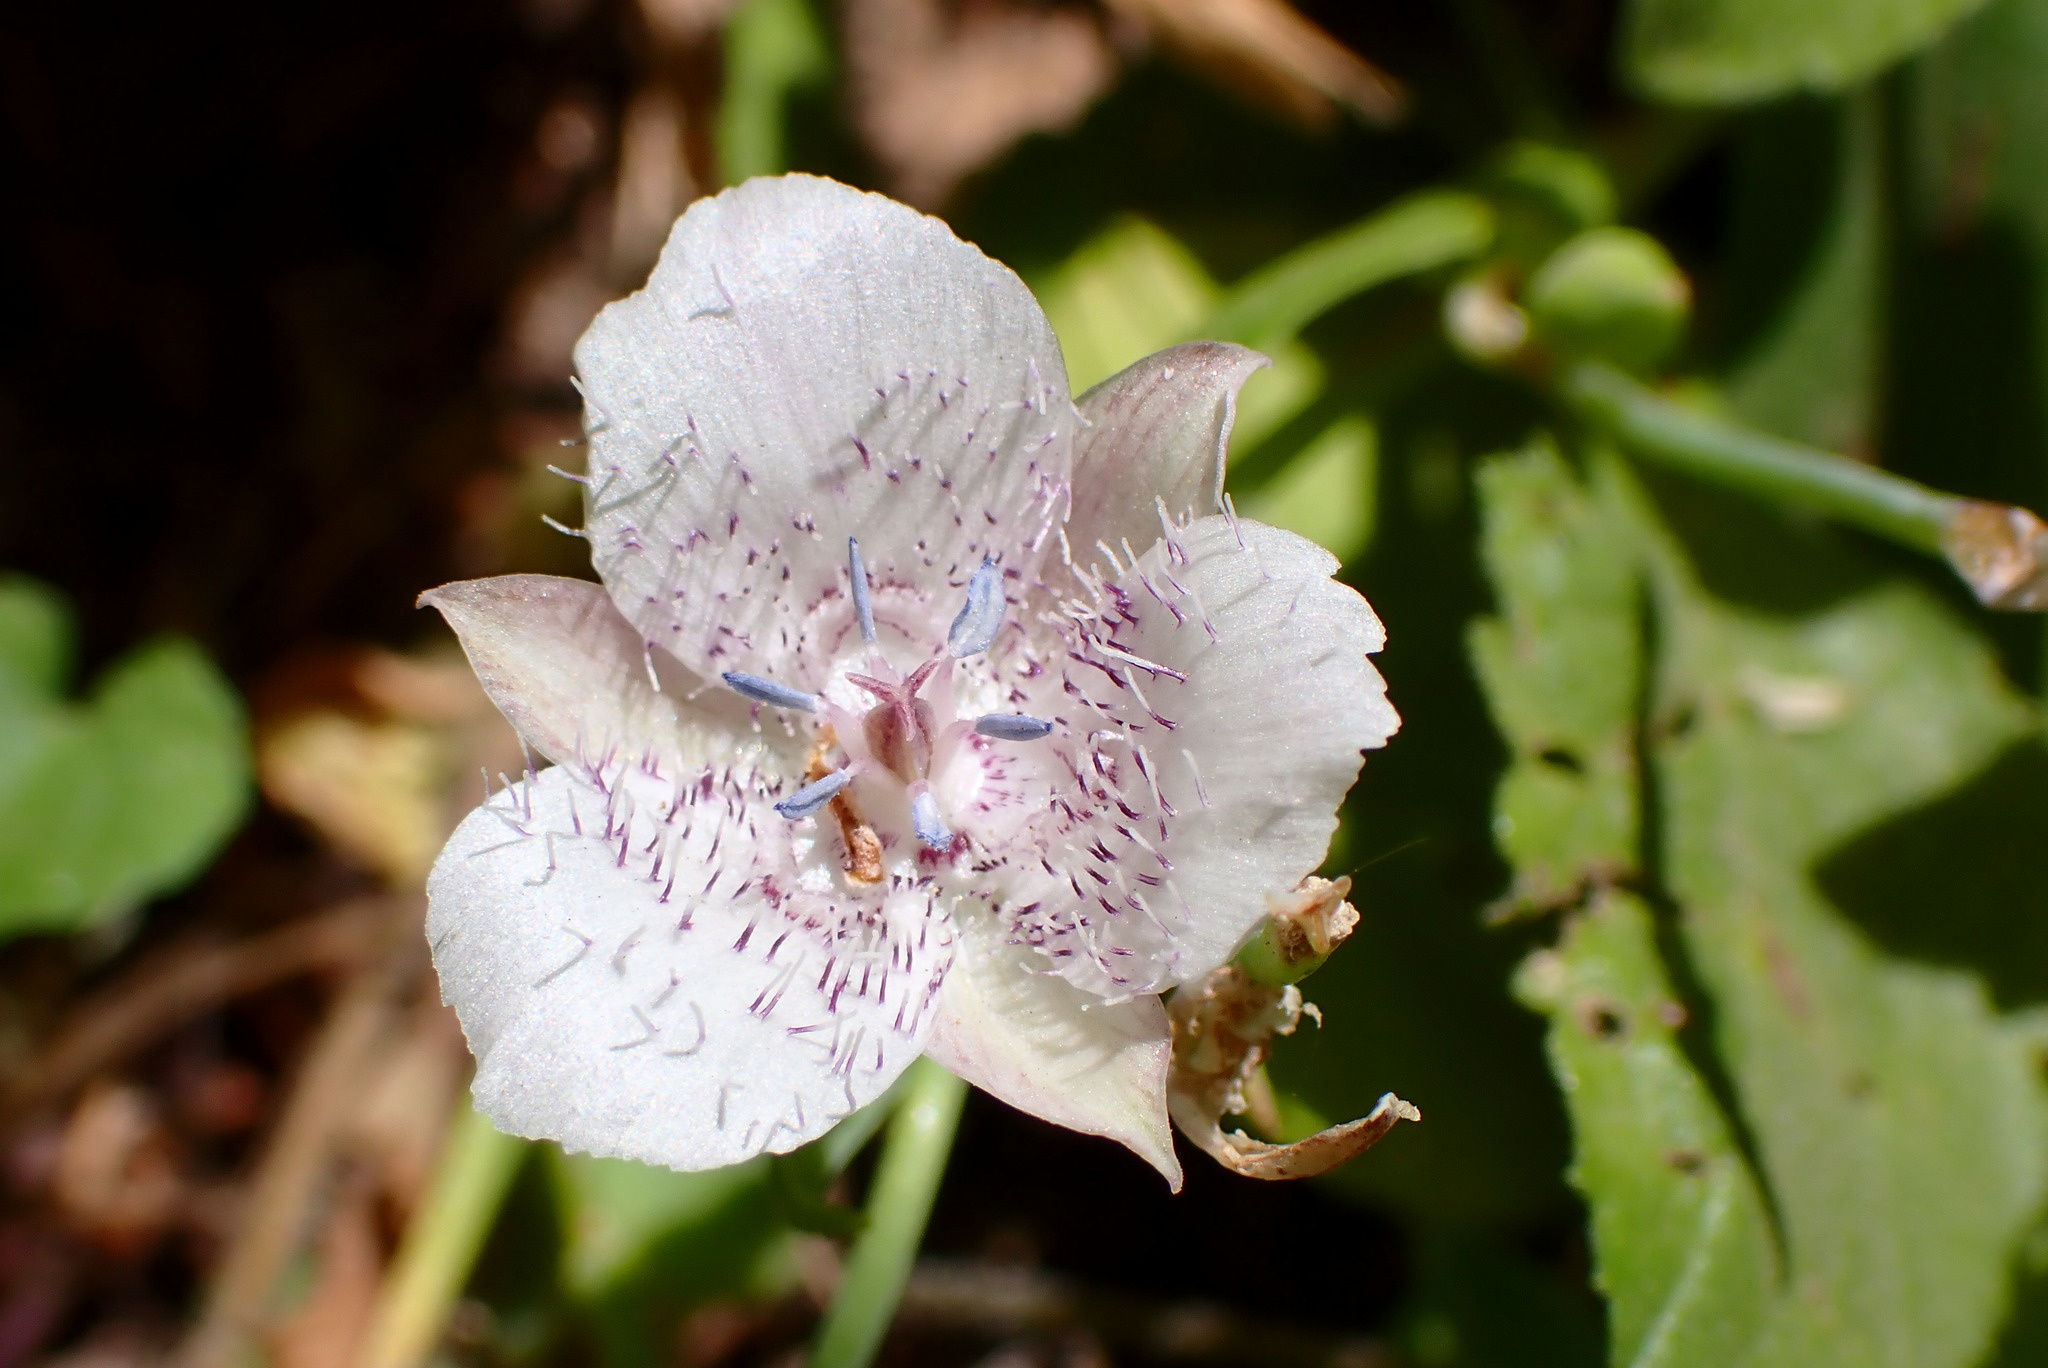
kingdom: Plantae
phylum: Tracheophyta
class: Liliopsida
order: Liliales
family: Liliaceae
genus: Calochortus
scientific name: Calochortus tolmiei
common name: Pussy-ears
